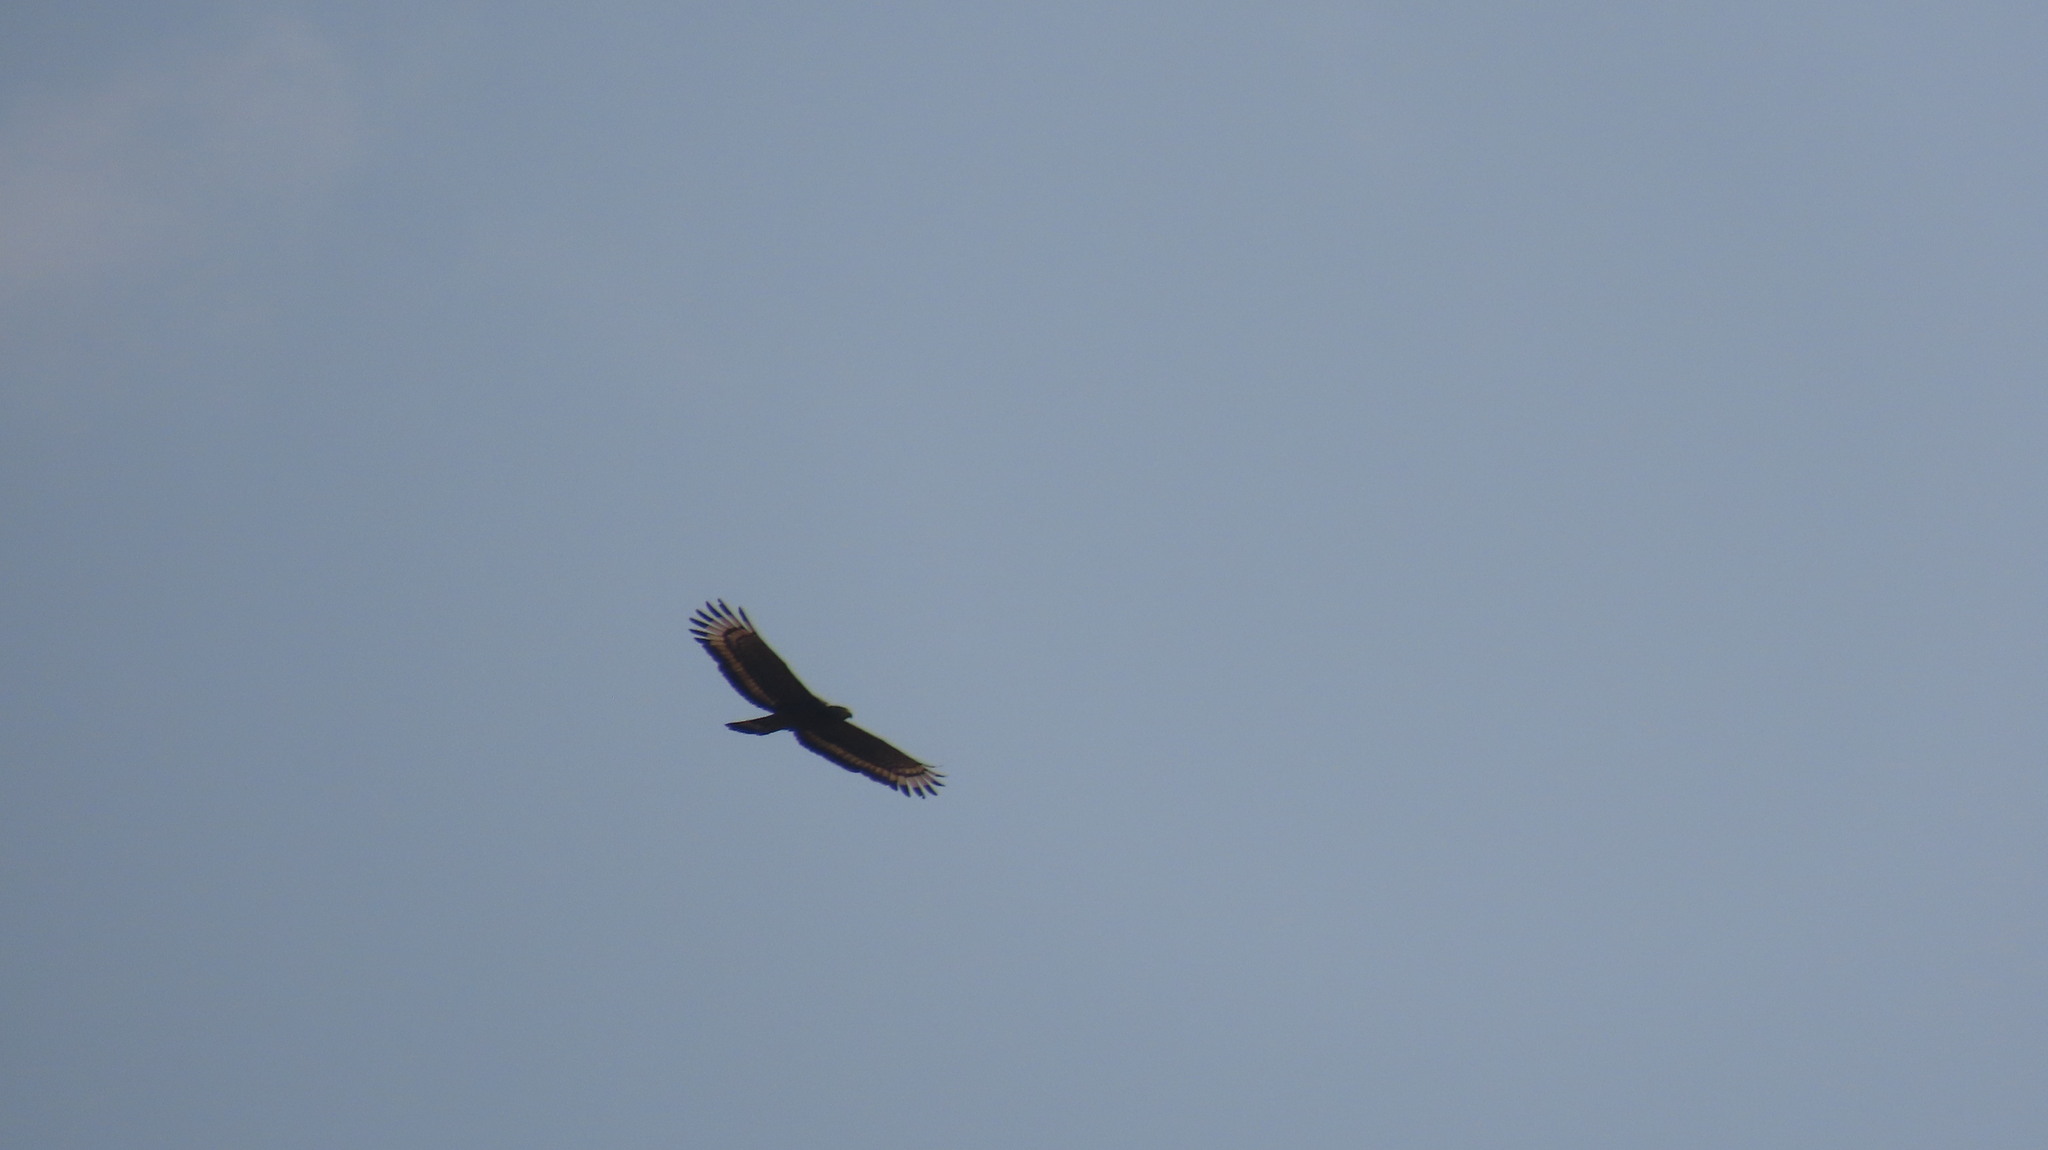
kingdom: Animalia
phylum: Chordata
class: Aves
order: Accipitriformes
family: Accipitridae
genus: Spilornis
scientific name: Spilornis cheela
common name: Crested serpent eagle
